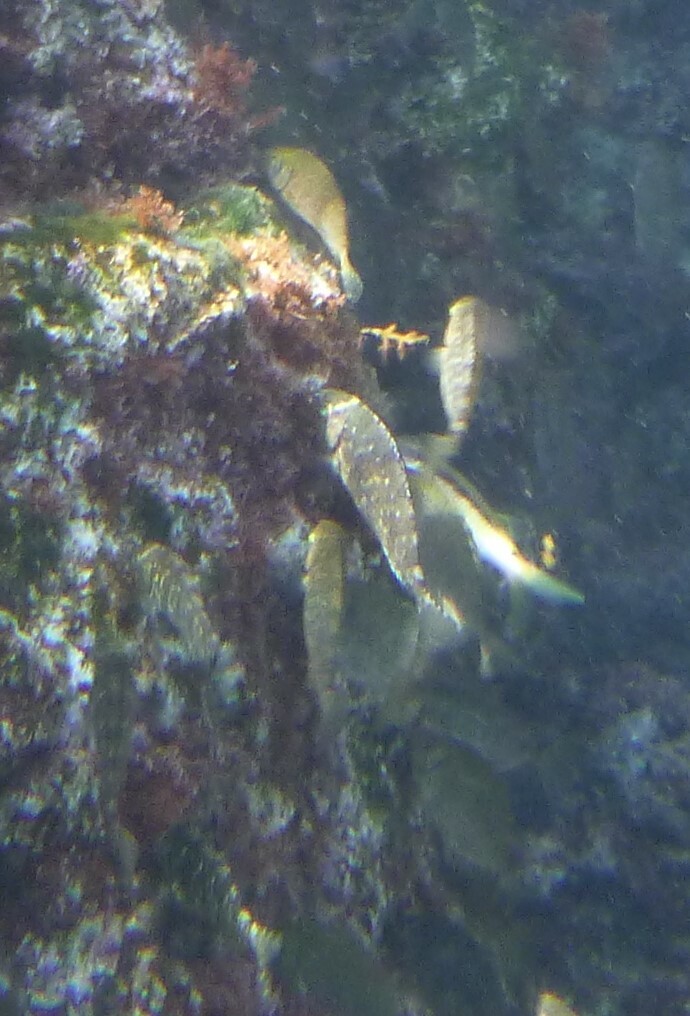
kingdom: Animalia
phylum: Chordata
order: Perciformes
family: Siganidae
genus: Siganus
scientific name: Siganus
